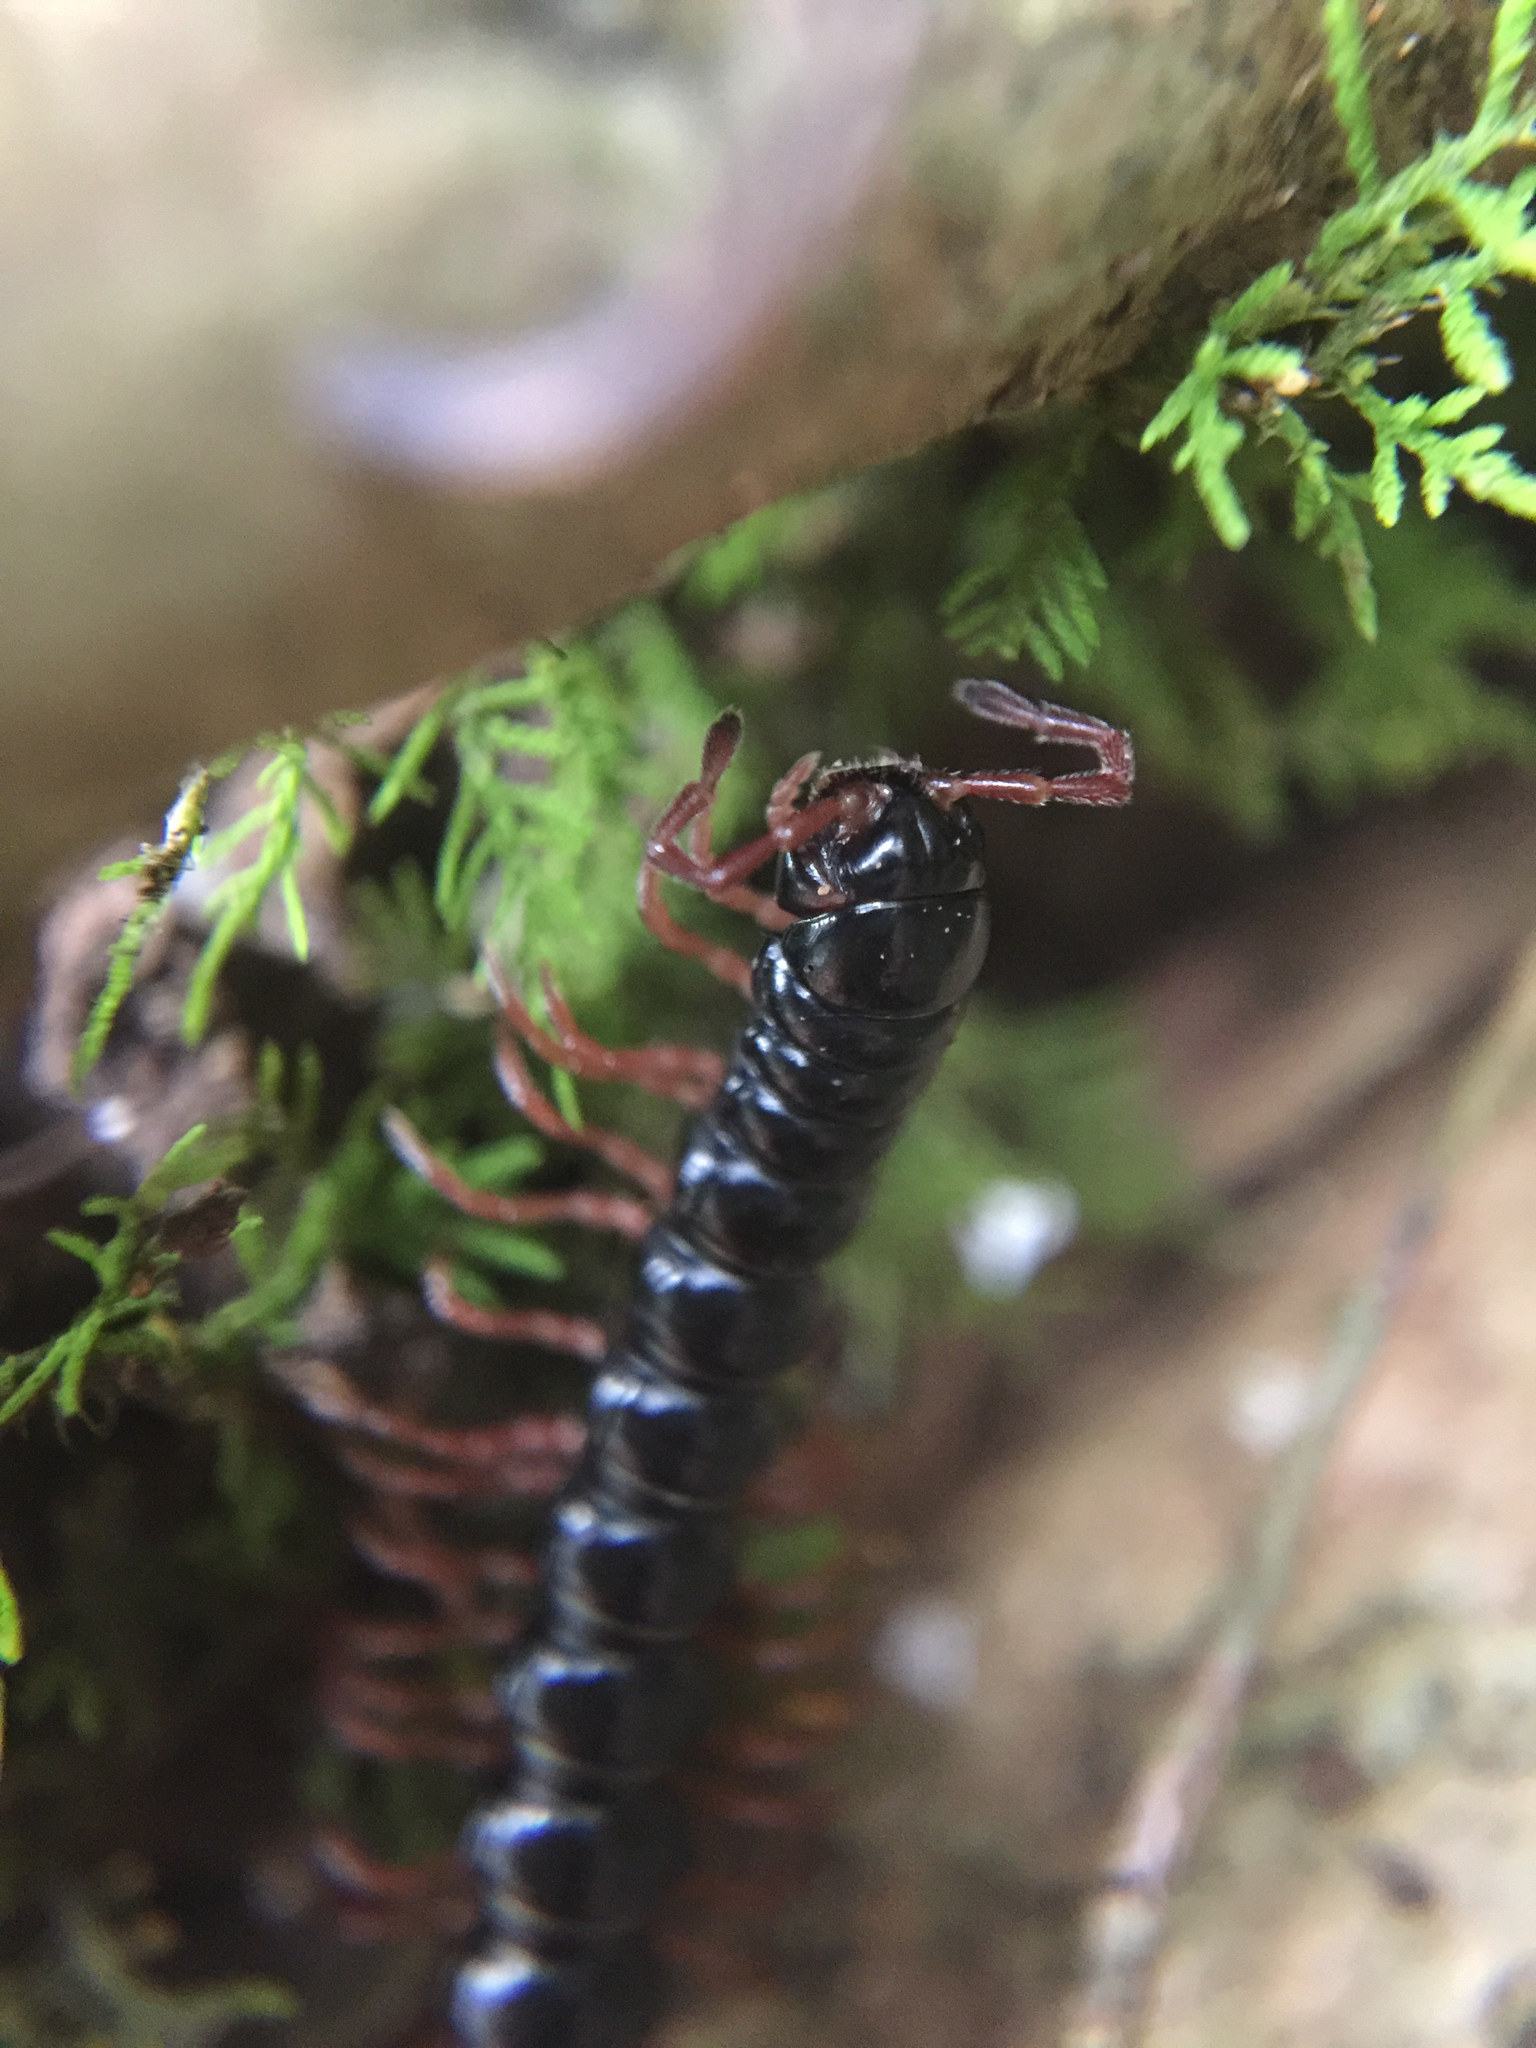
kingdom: Animalia
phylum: Arthropoda
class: Diplopoda
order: Polydesmida
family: Paradoxosomatidae
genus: Heterocladosoma
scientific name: Heterocladosoma
